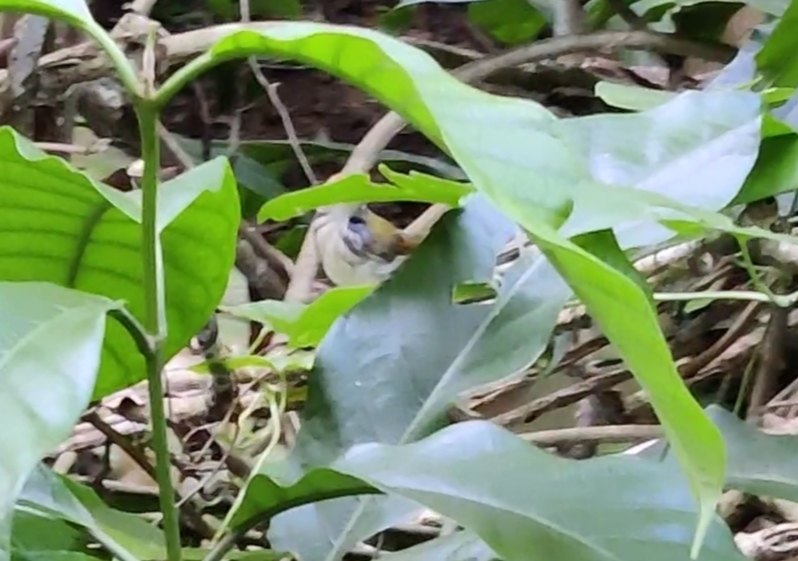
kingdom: Animalia
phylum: Chordata
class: Aves
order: Passeriformes
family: Cisticolidae
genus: Orthotomus
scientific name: Orthotomus sutorius
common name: Common tailorbird
